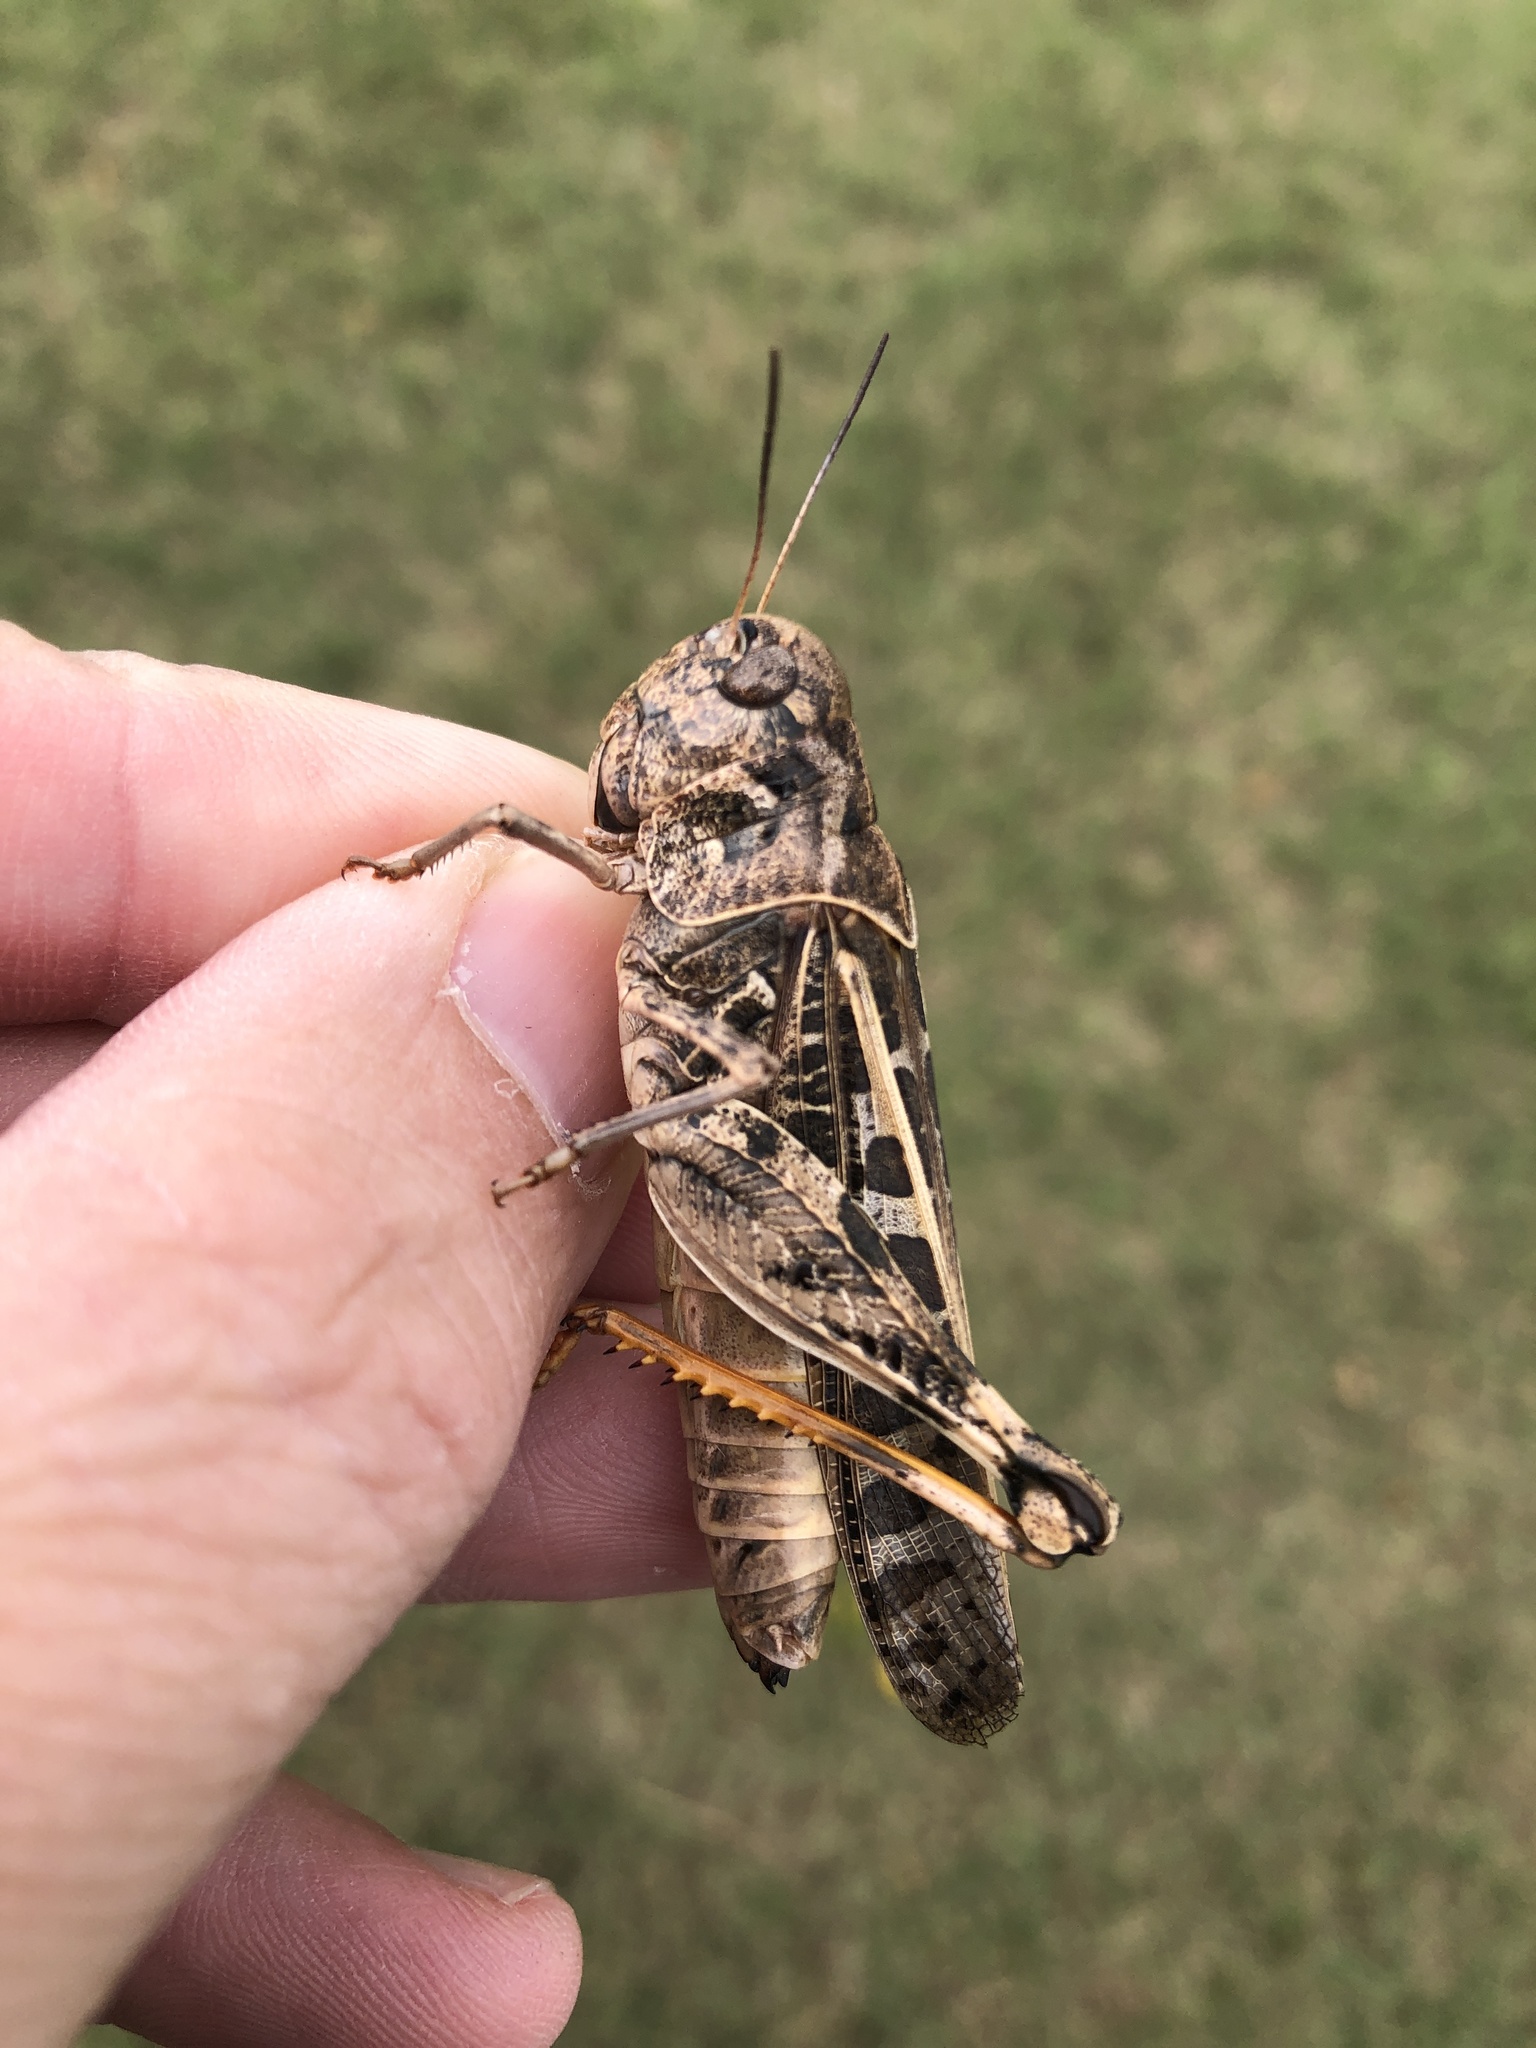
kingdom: Animalia
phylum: Arthropoda
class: Insecta
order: Orthoptera
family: Acrididae
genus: Hippiscus
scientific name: Hippiscus ocelote
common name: Wrinkled grasshopper
